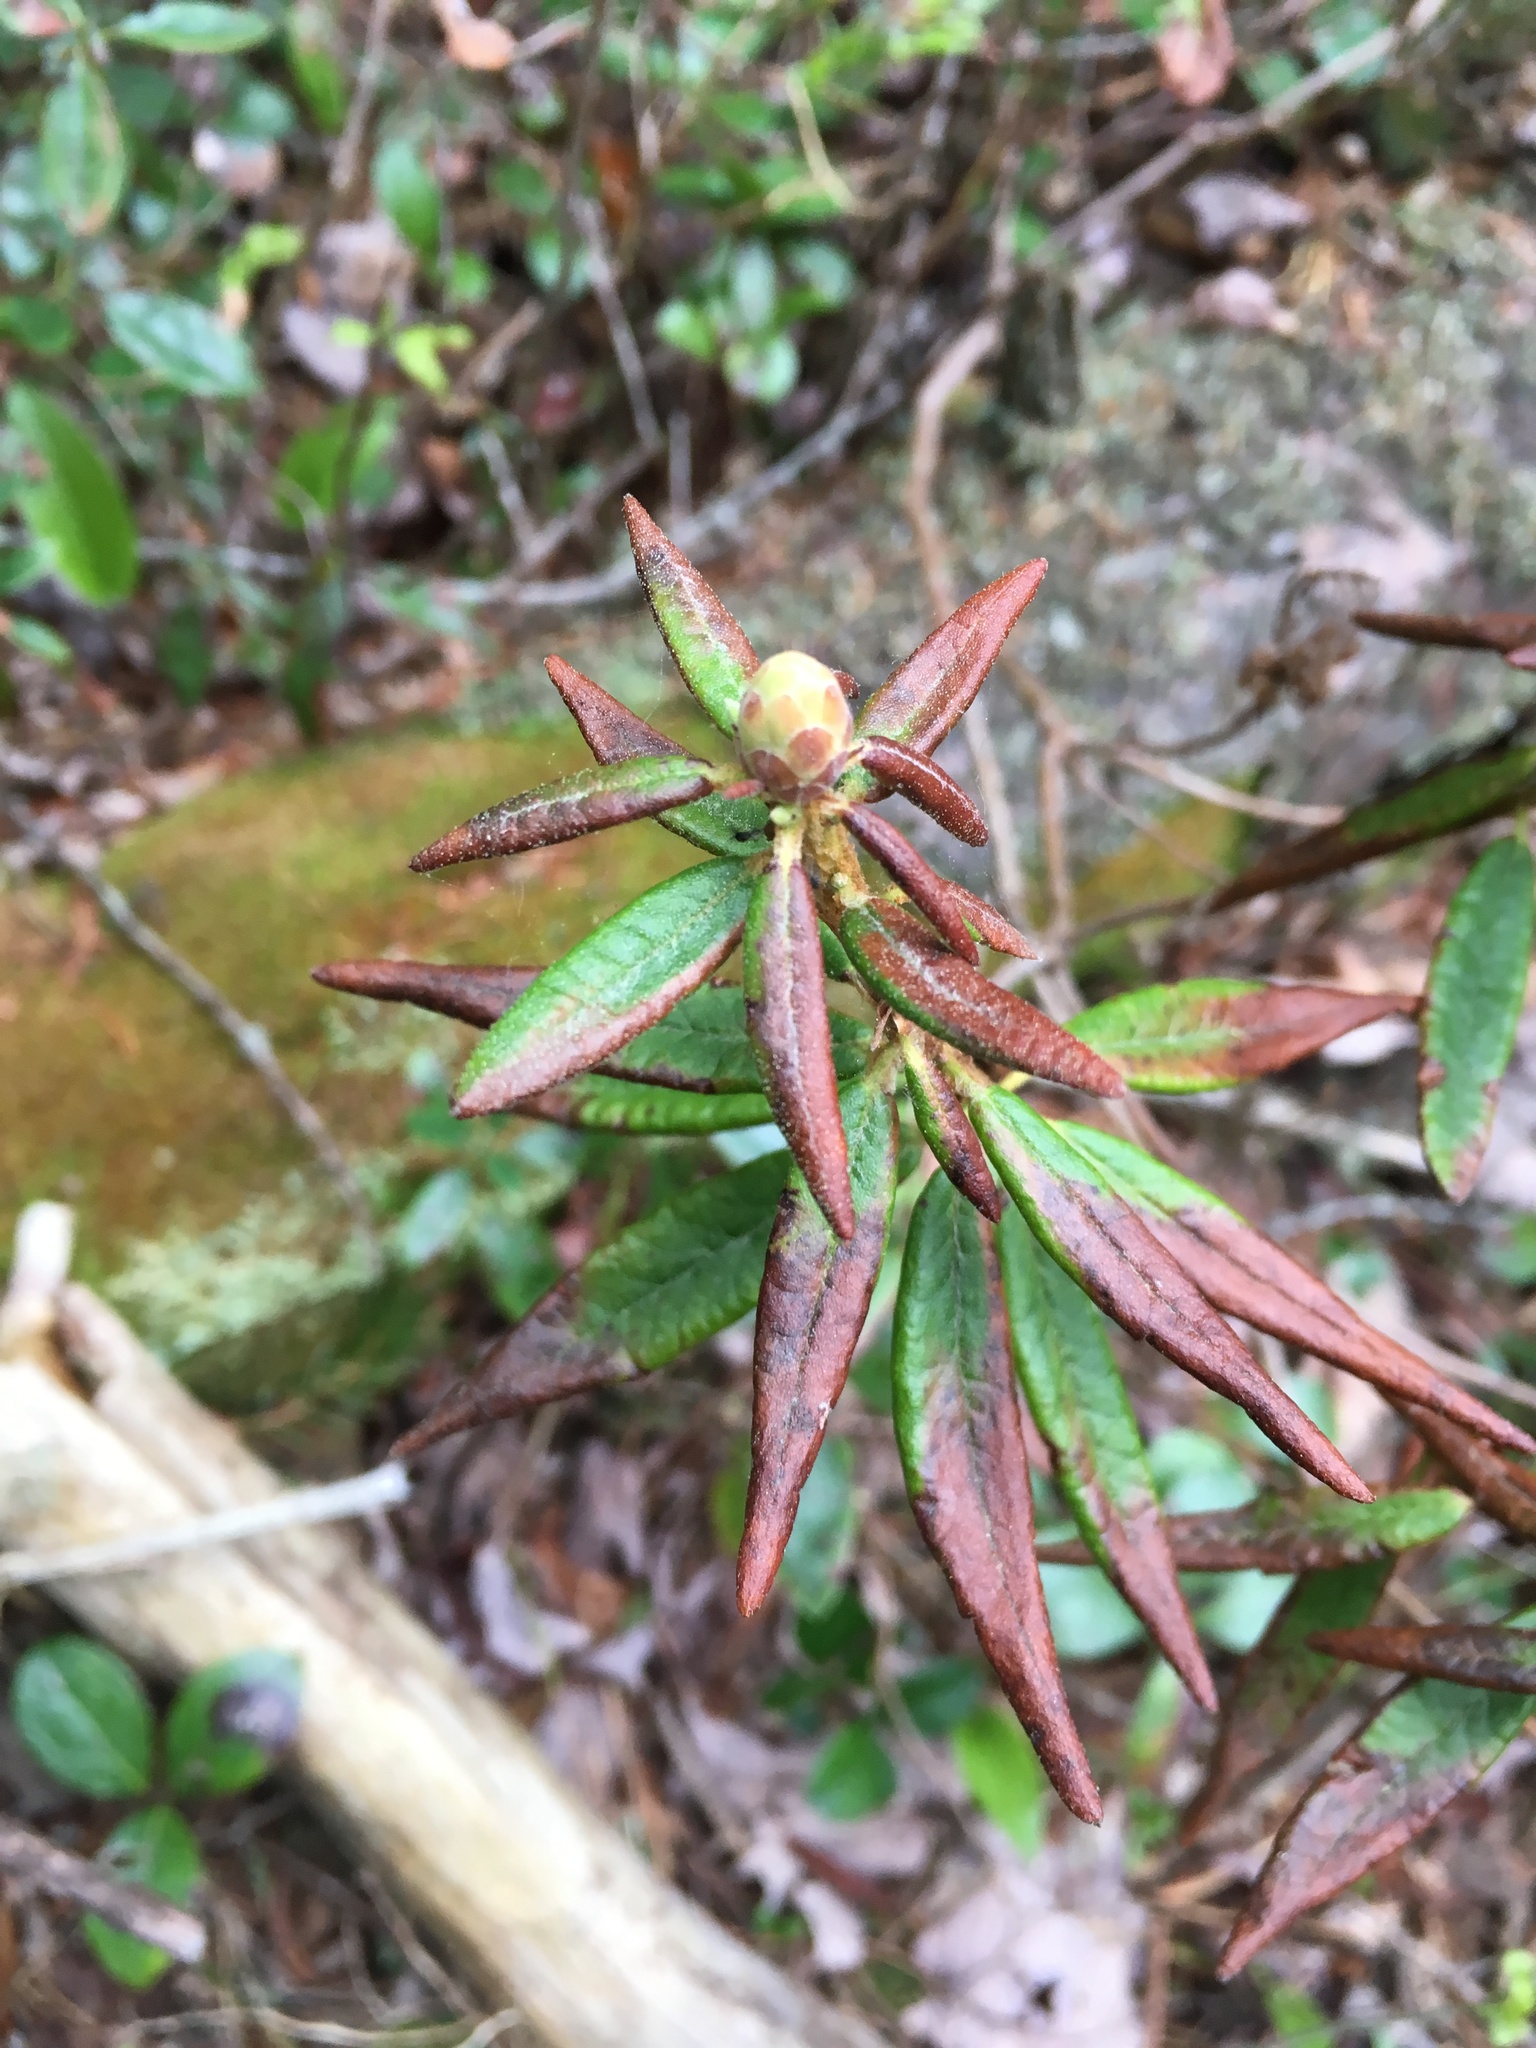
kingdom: Plantae
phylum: Tracheophyta
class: Magnoliopsida
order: Ericales
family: Ericaceae
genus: Rhododendron
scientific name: Rhododendron groenlandicum
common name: Bog labrador tea
